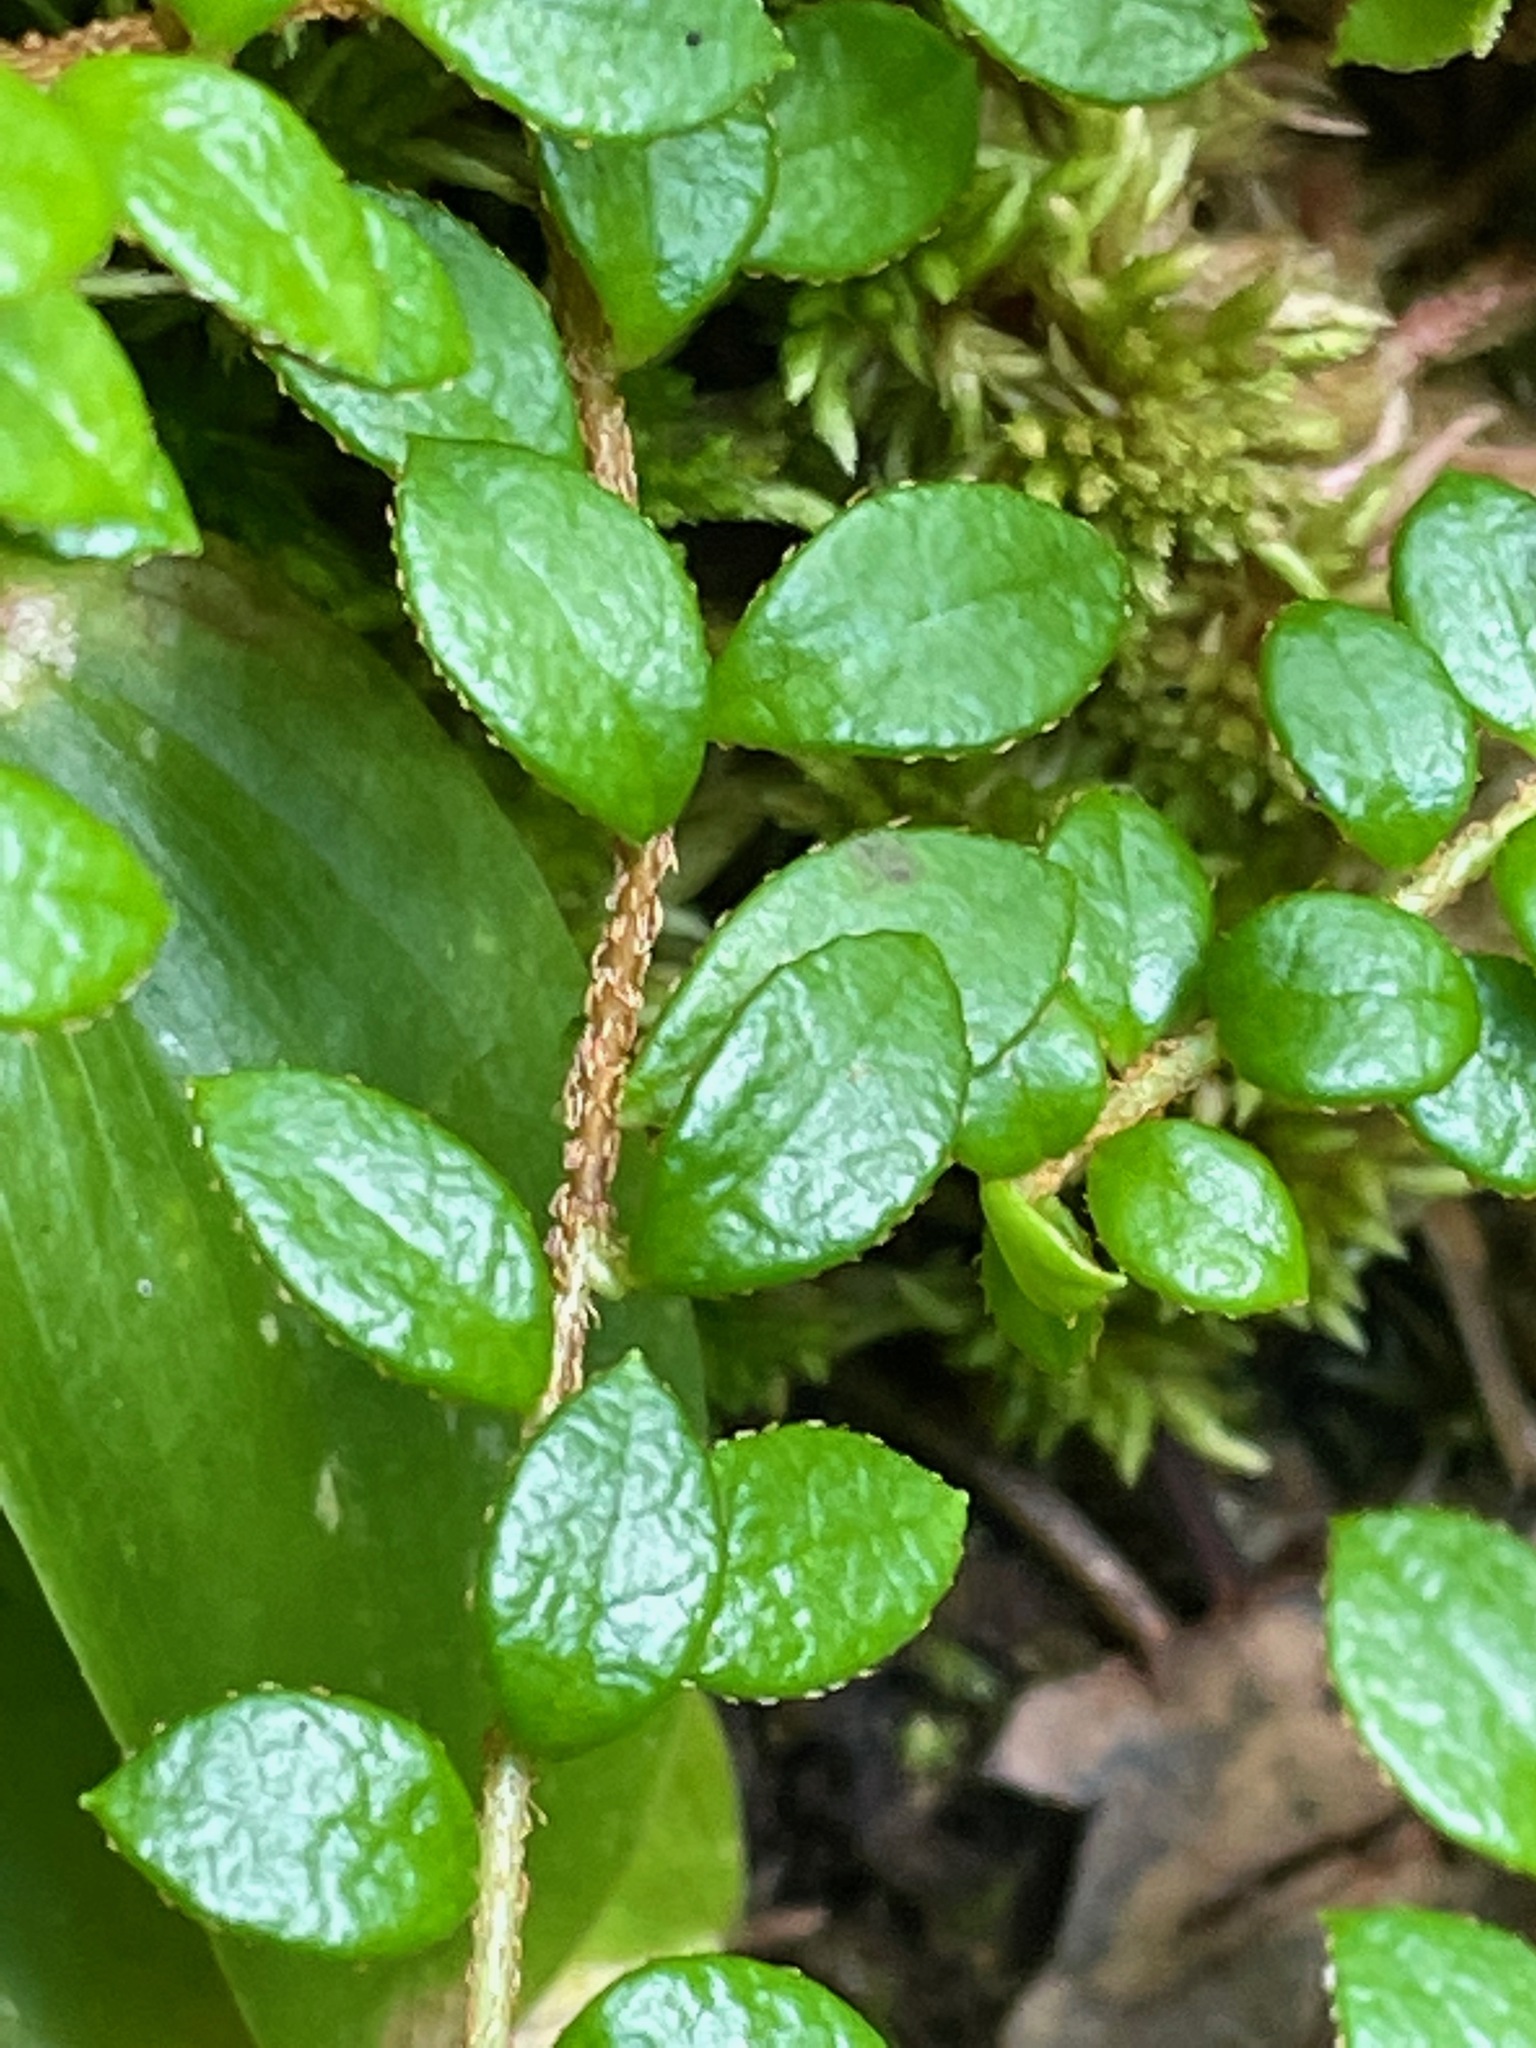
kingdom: Plantae
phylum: Tracheophyta
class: Magnoliopsida
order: Ericales
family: Ericaceae
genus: Gaultheria
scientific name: Gaultheria hispidula
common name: Cancer wintergreen
